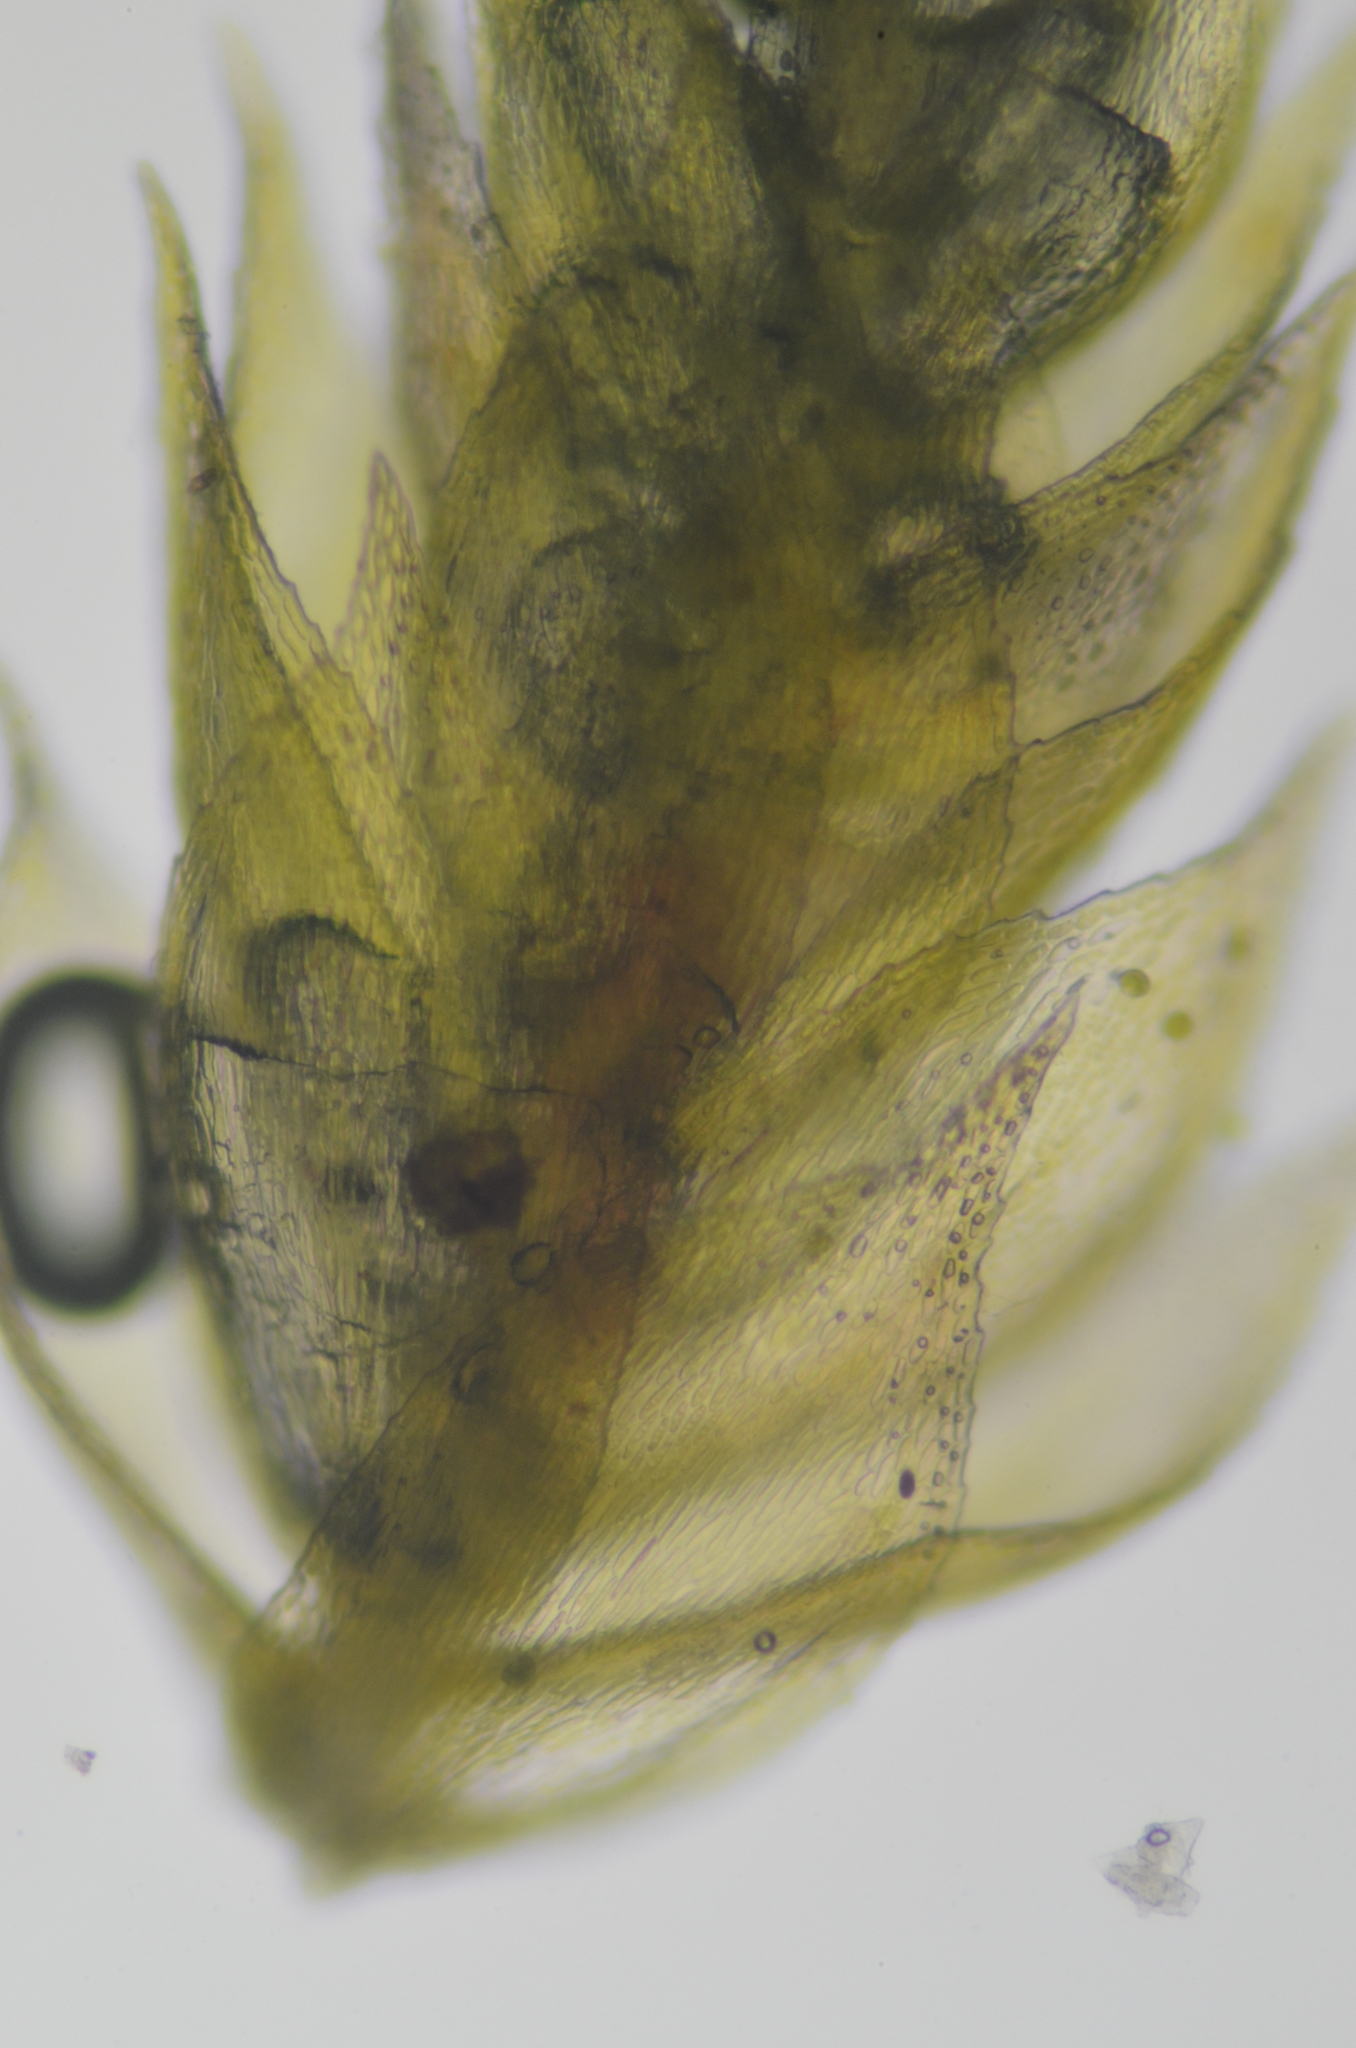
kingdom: Plantae
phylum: Bryophyta
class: Bryopsida
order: Hypnales
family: Lembophyllaceae
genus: Nogopterium
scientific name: Nogopterium gracile
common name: Bird's-foot wing-moss
